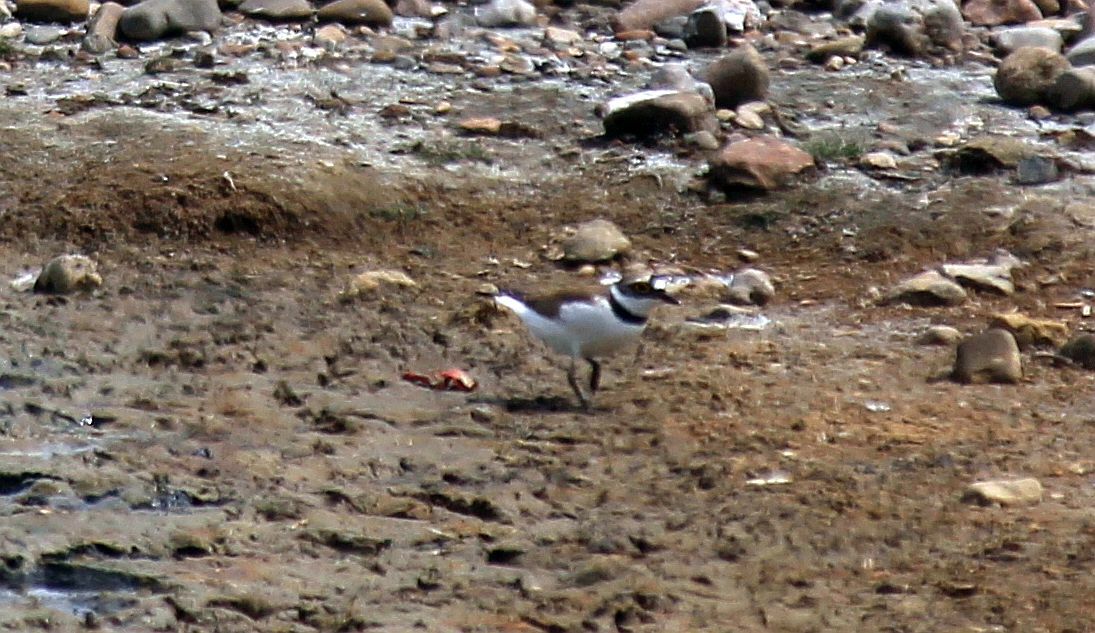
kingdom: Animalia
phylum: Chordata
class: Aves
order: Charadriiformes
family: Charadriidae
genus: Charadrius
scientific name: Charadrius dubius
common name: Little ringed plover
